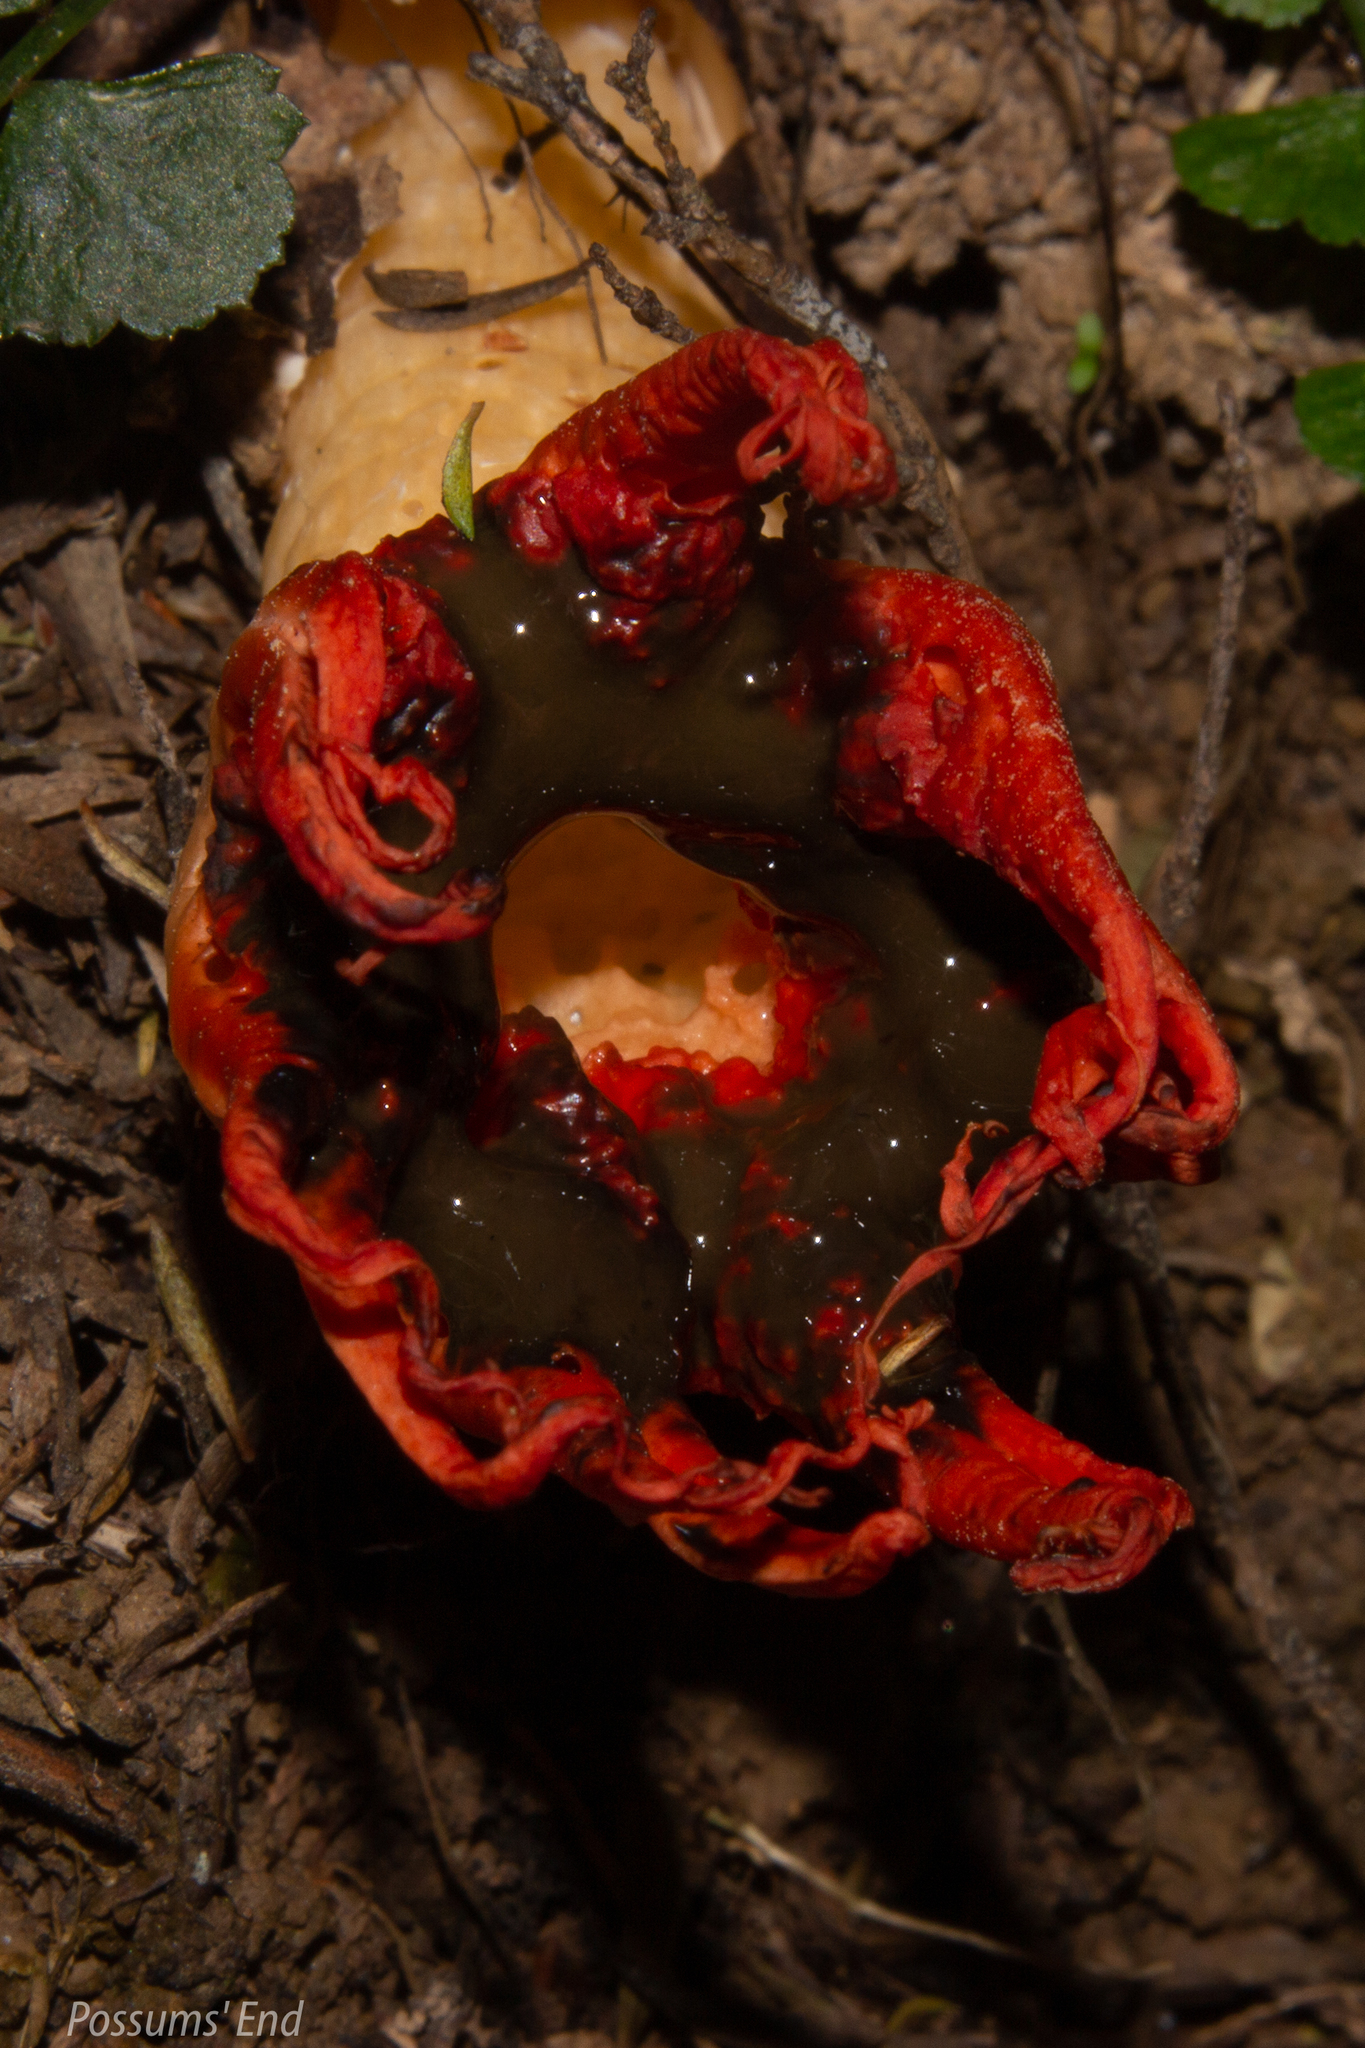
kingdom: Fungi
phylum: Basidiomycota
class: Agaricomycetes
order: Phallales
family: Phallaceae
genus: Aseroe
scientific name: Aseroe rubra
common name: Starfish fungus
